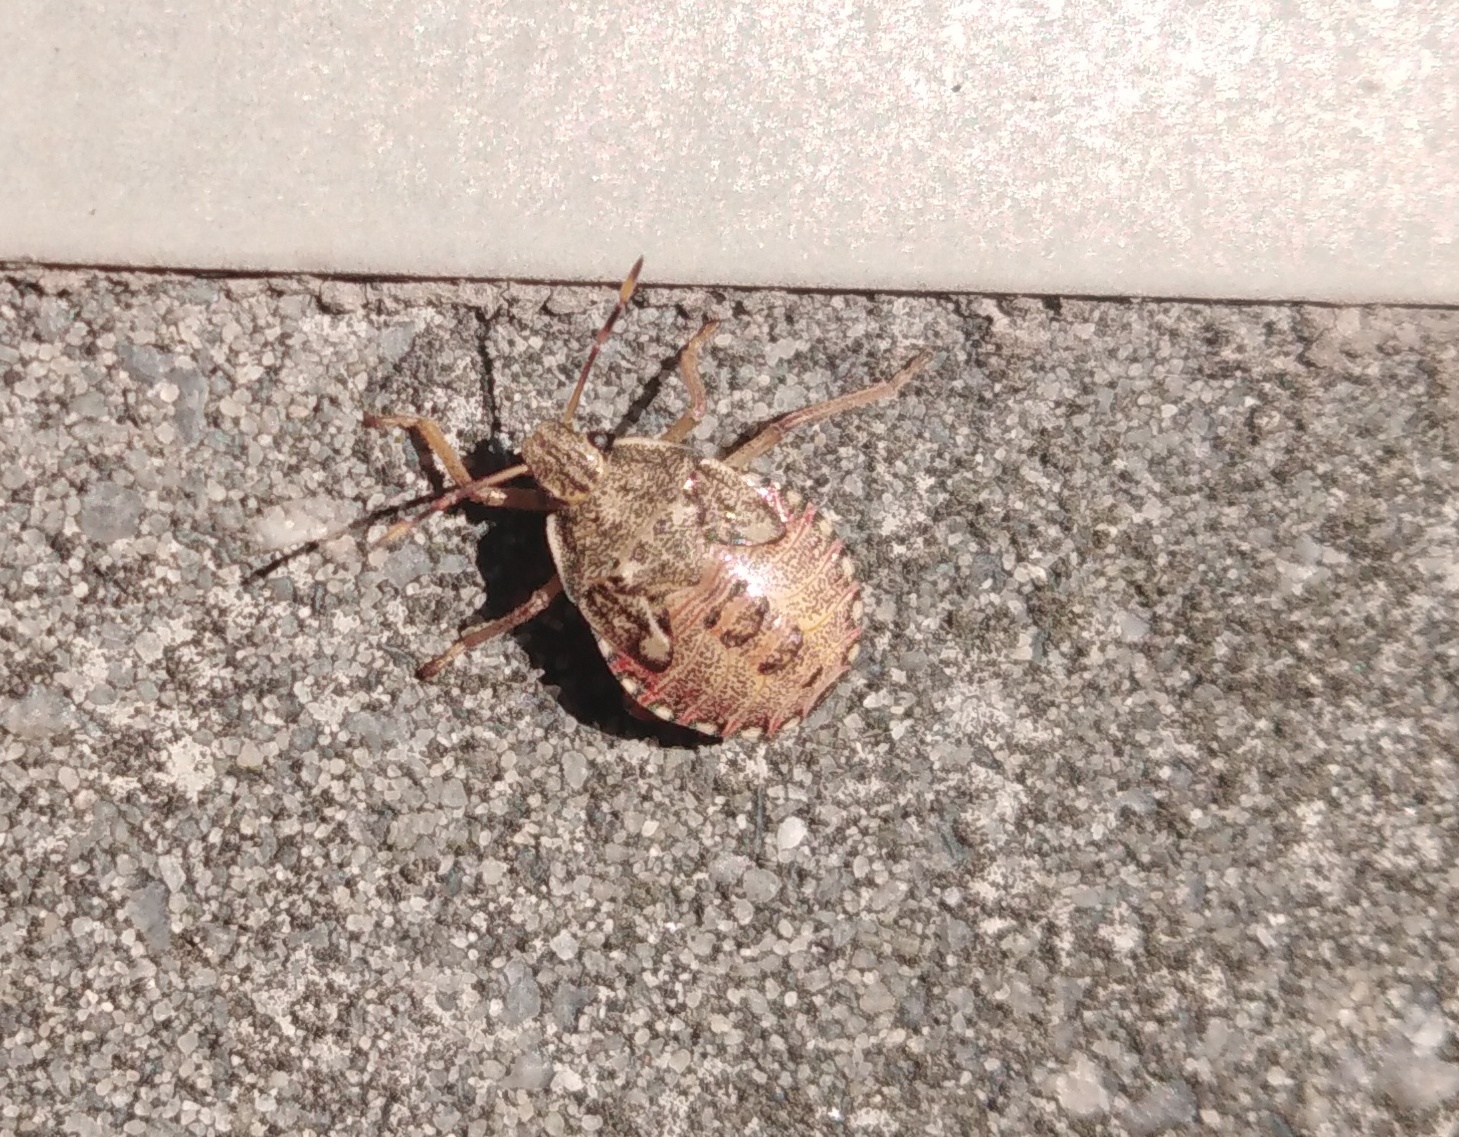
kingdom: Animalia
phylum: Arthropoda
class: Insecta
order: Hemiptera
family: Pentatomidae
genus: Arma
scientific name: Arma custos
